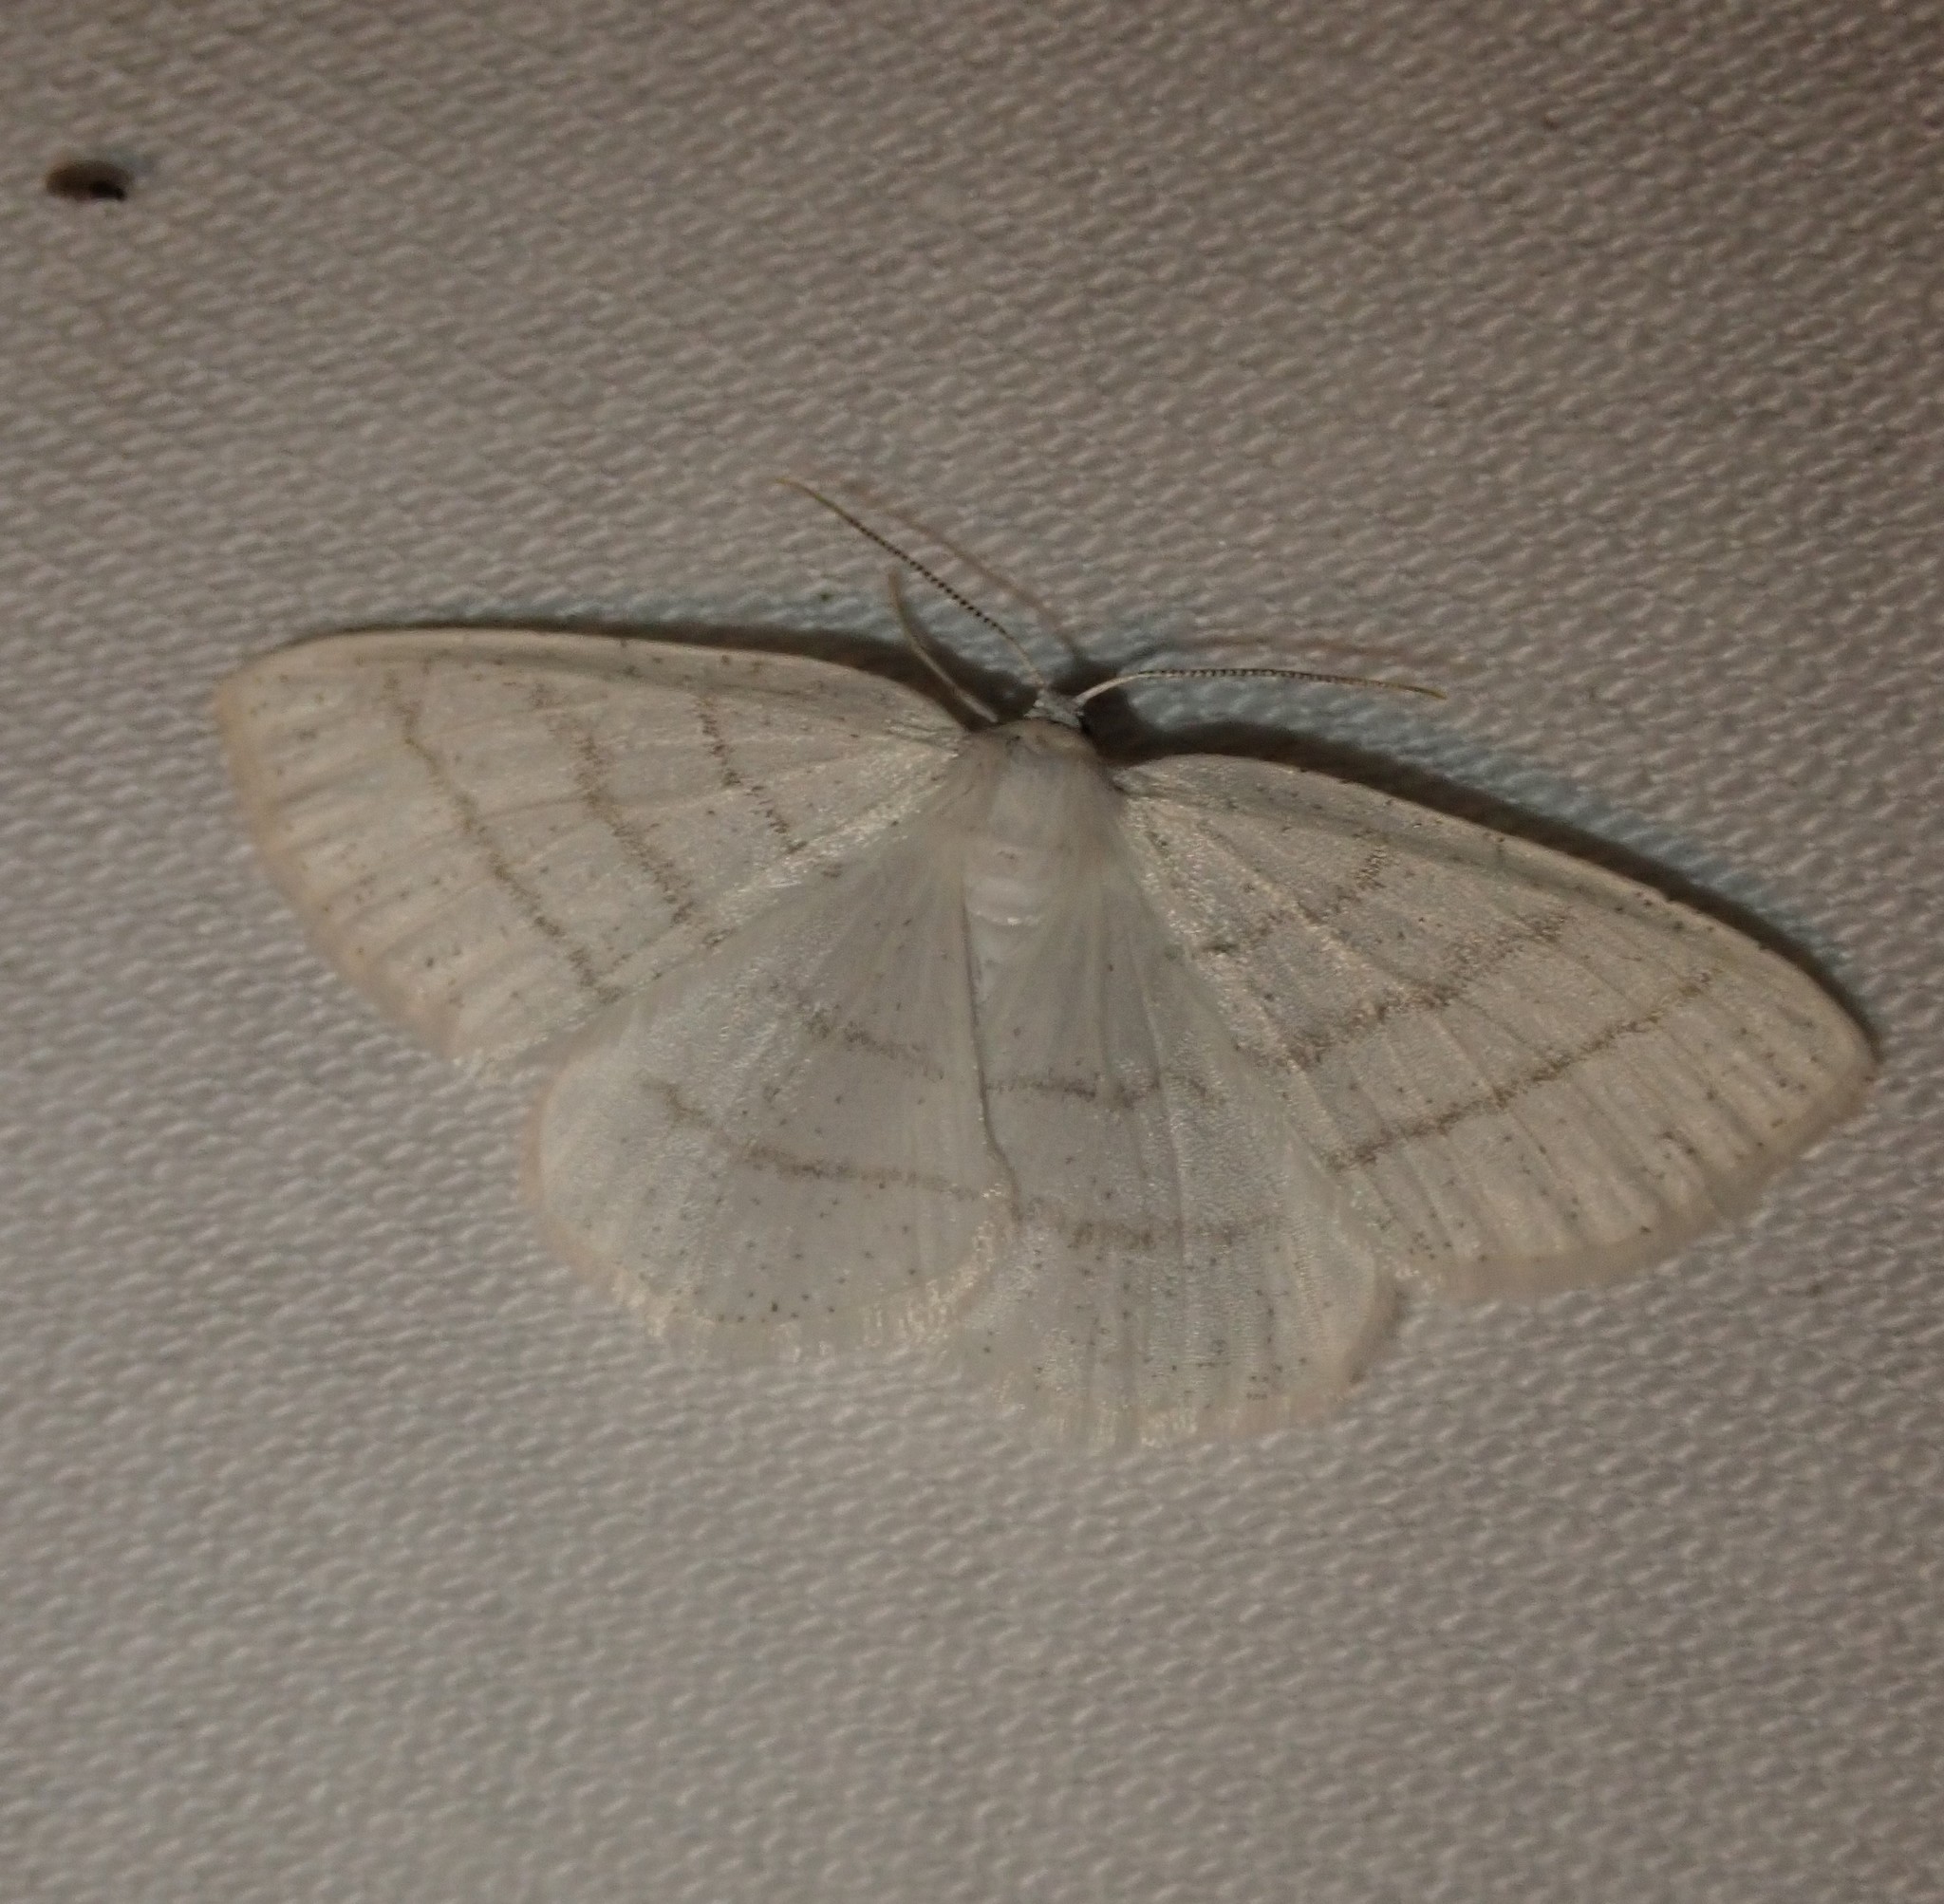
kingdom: Animalia
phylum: Arthropoda
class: Insecta
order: Lepidoptera
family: Geometridae
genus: Cabera
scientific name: Cabera pusaria
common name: Common white wave
